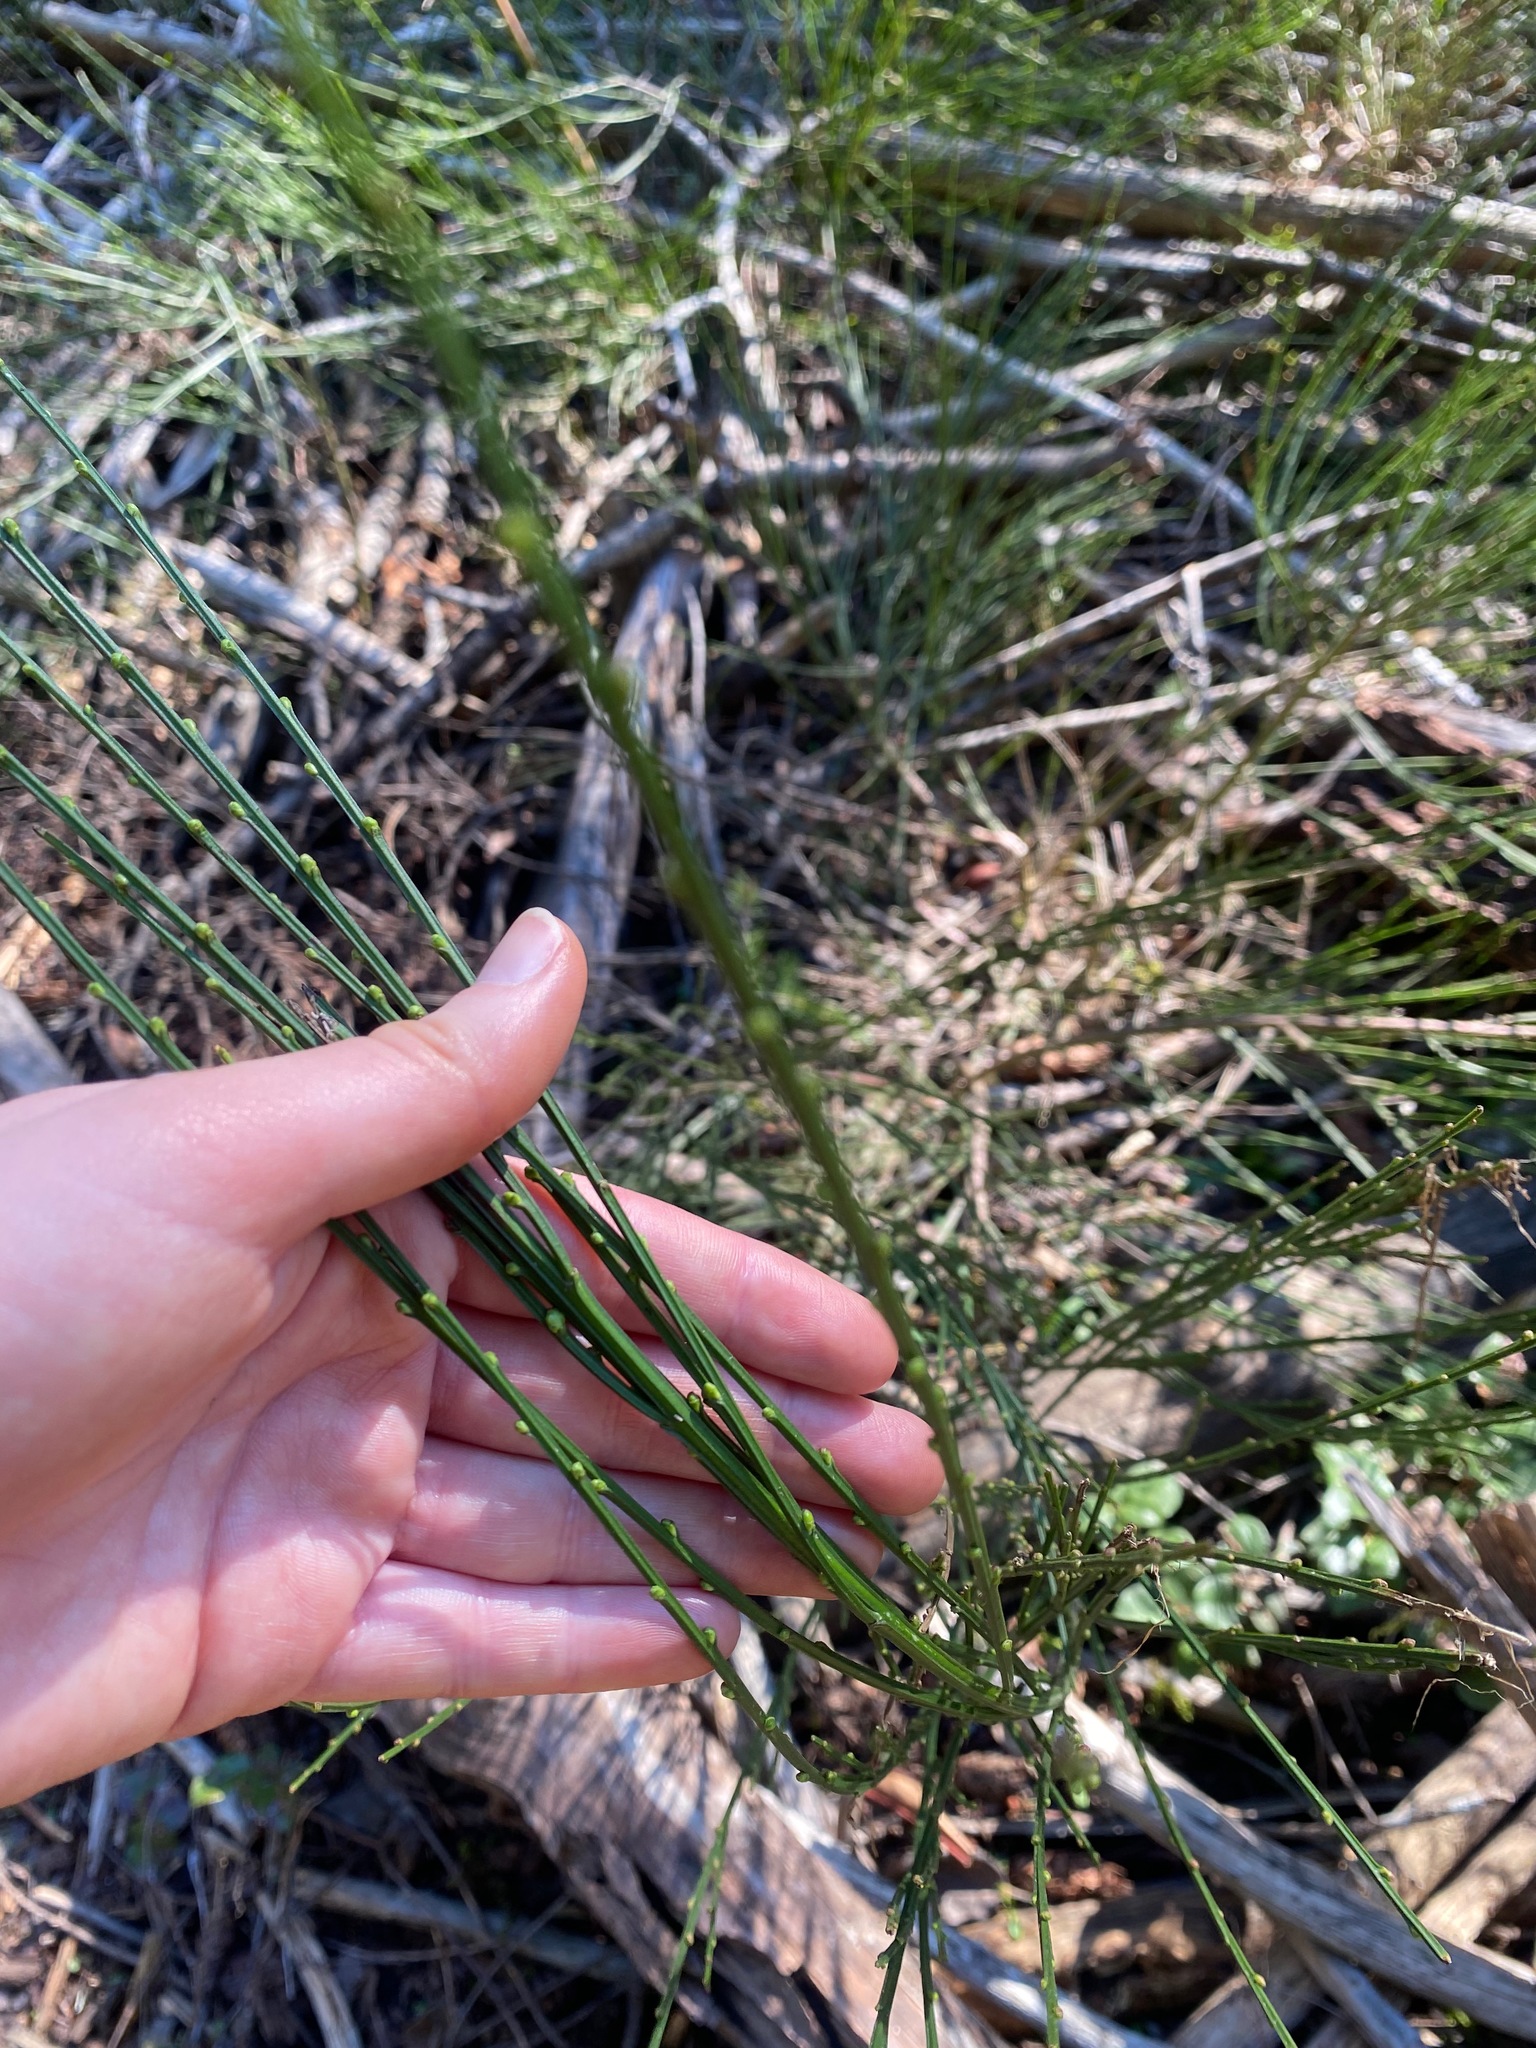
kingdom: Plantae
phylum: Tracheophyta
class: Magnoliopsida
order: Fabales
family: Fabaceae
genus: Cytisus
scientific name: Cytisus scoparius
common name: Scotch broom
